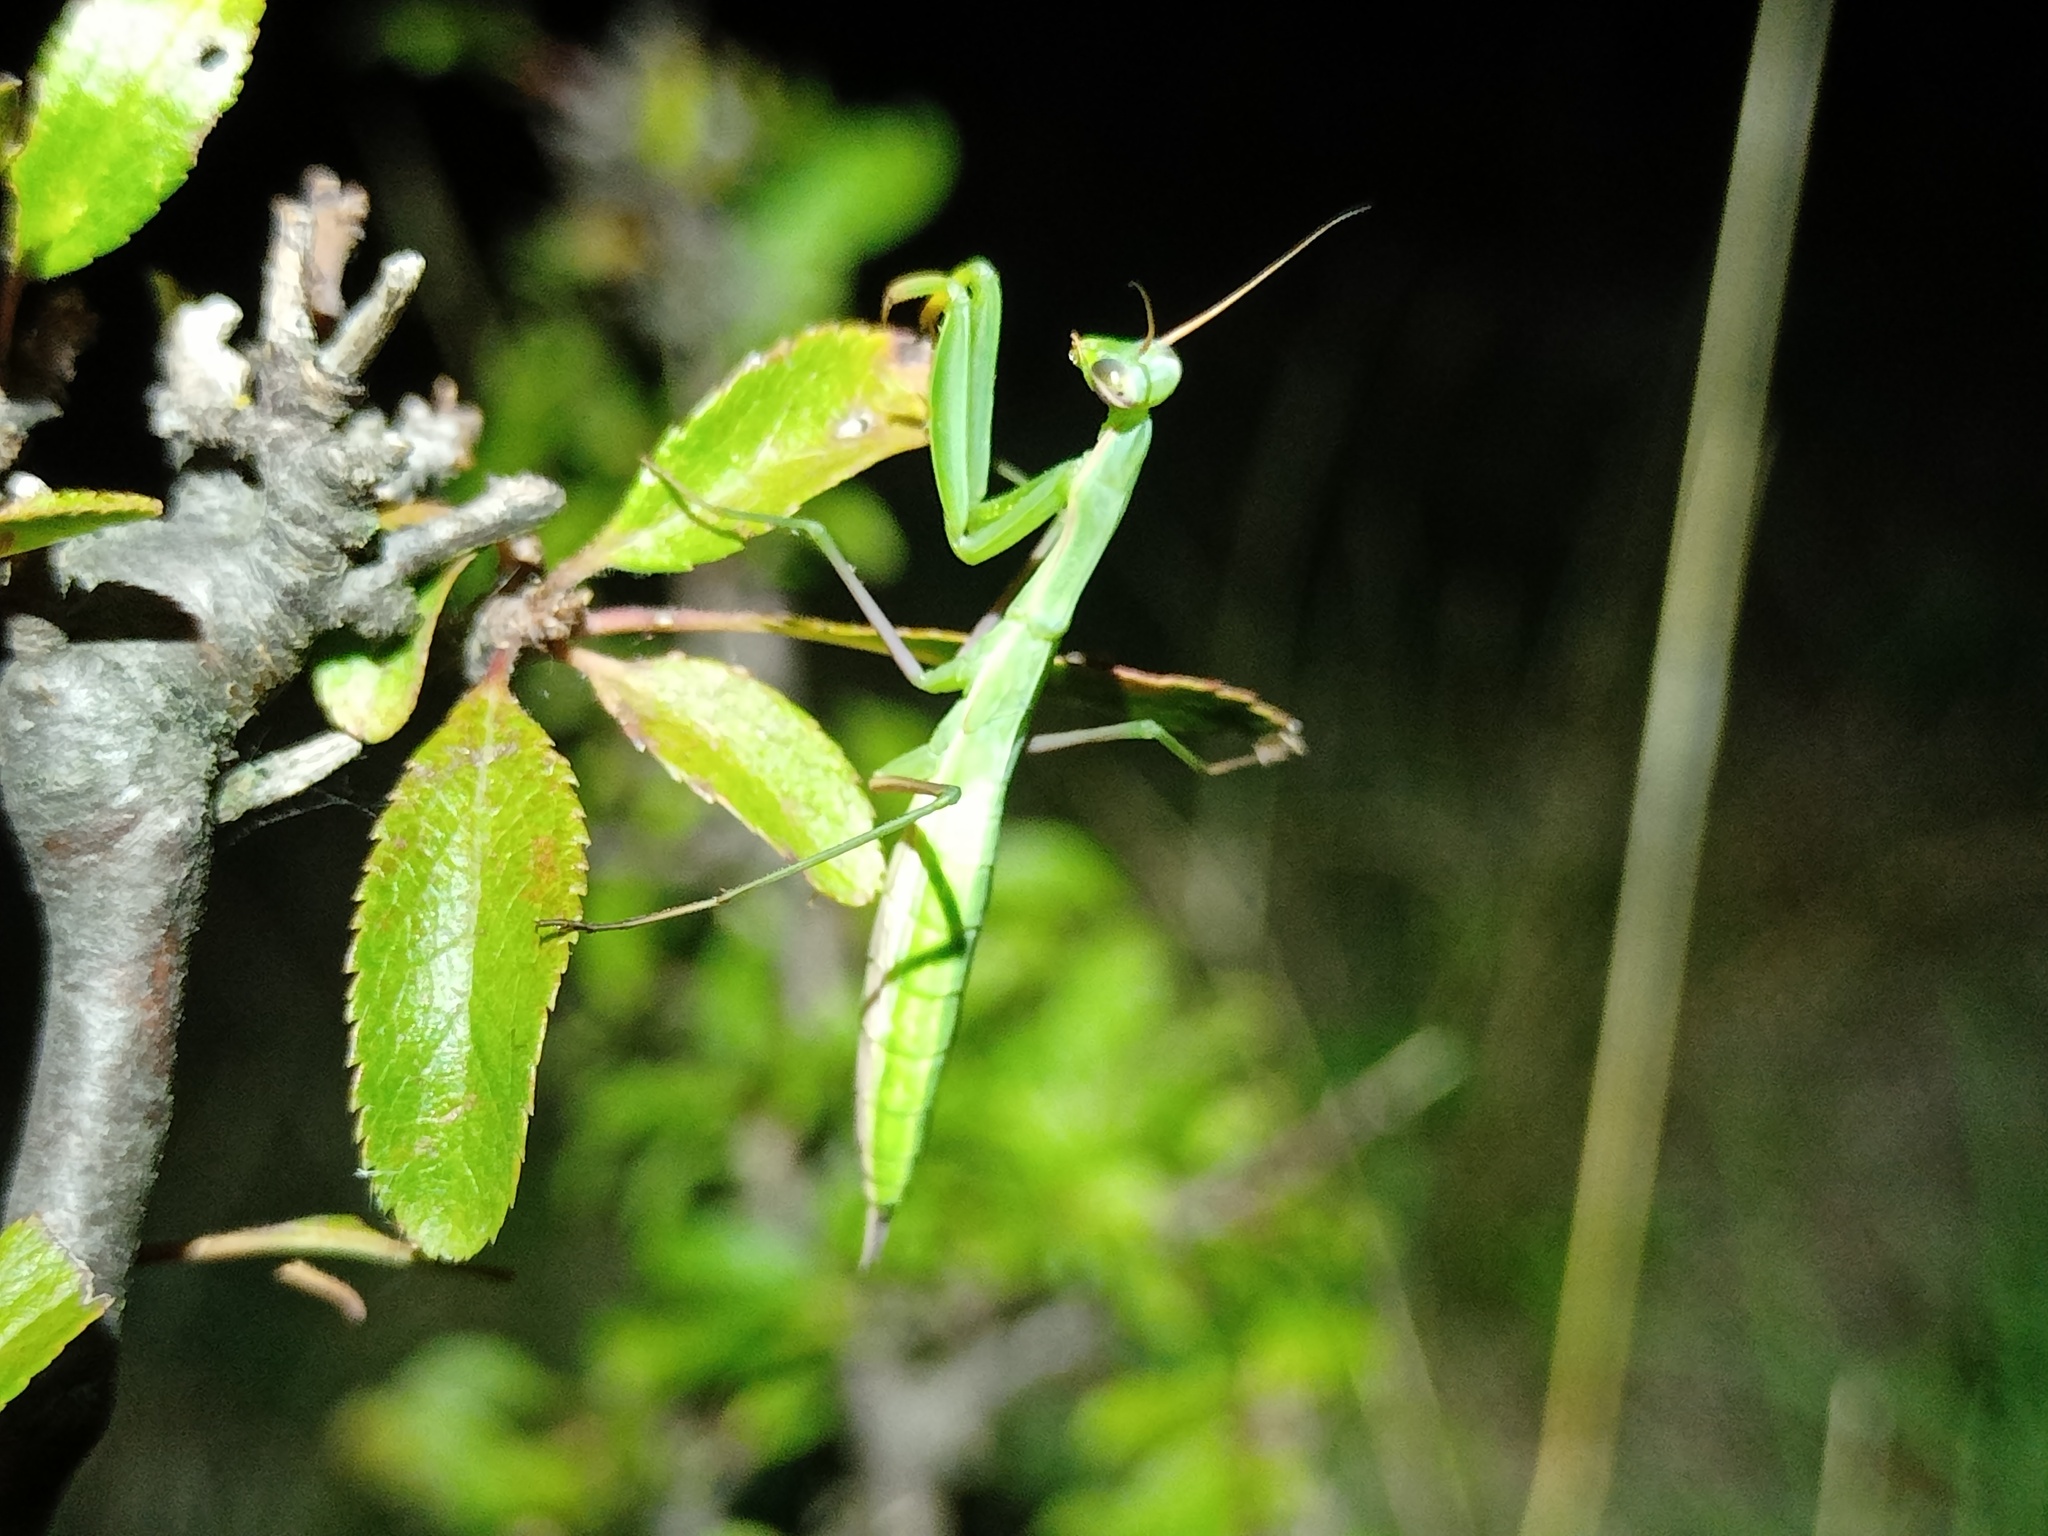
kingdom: Animalia
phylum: Arthropoda
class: Insecta
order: Mantodea
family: Mantidae
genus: Mantis
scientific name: Mantis religiosa
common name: Praying mantis
